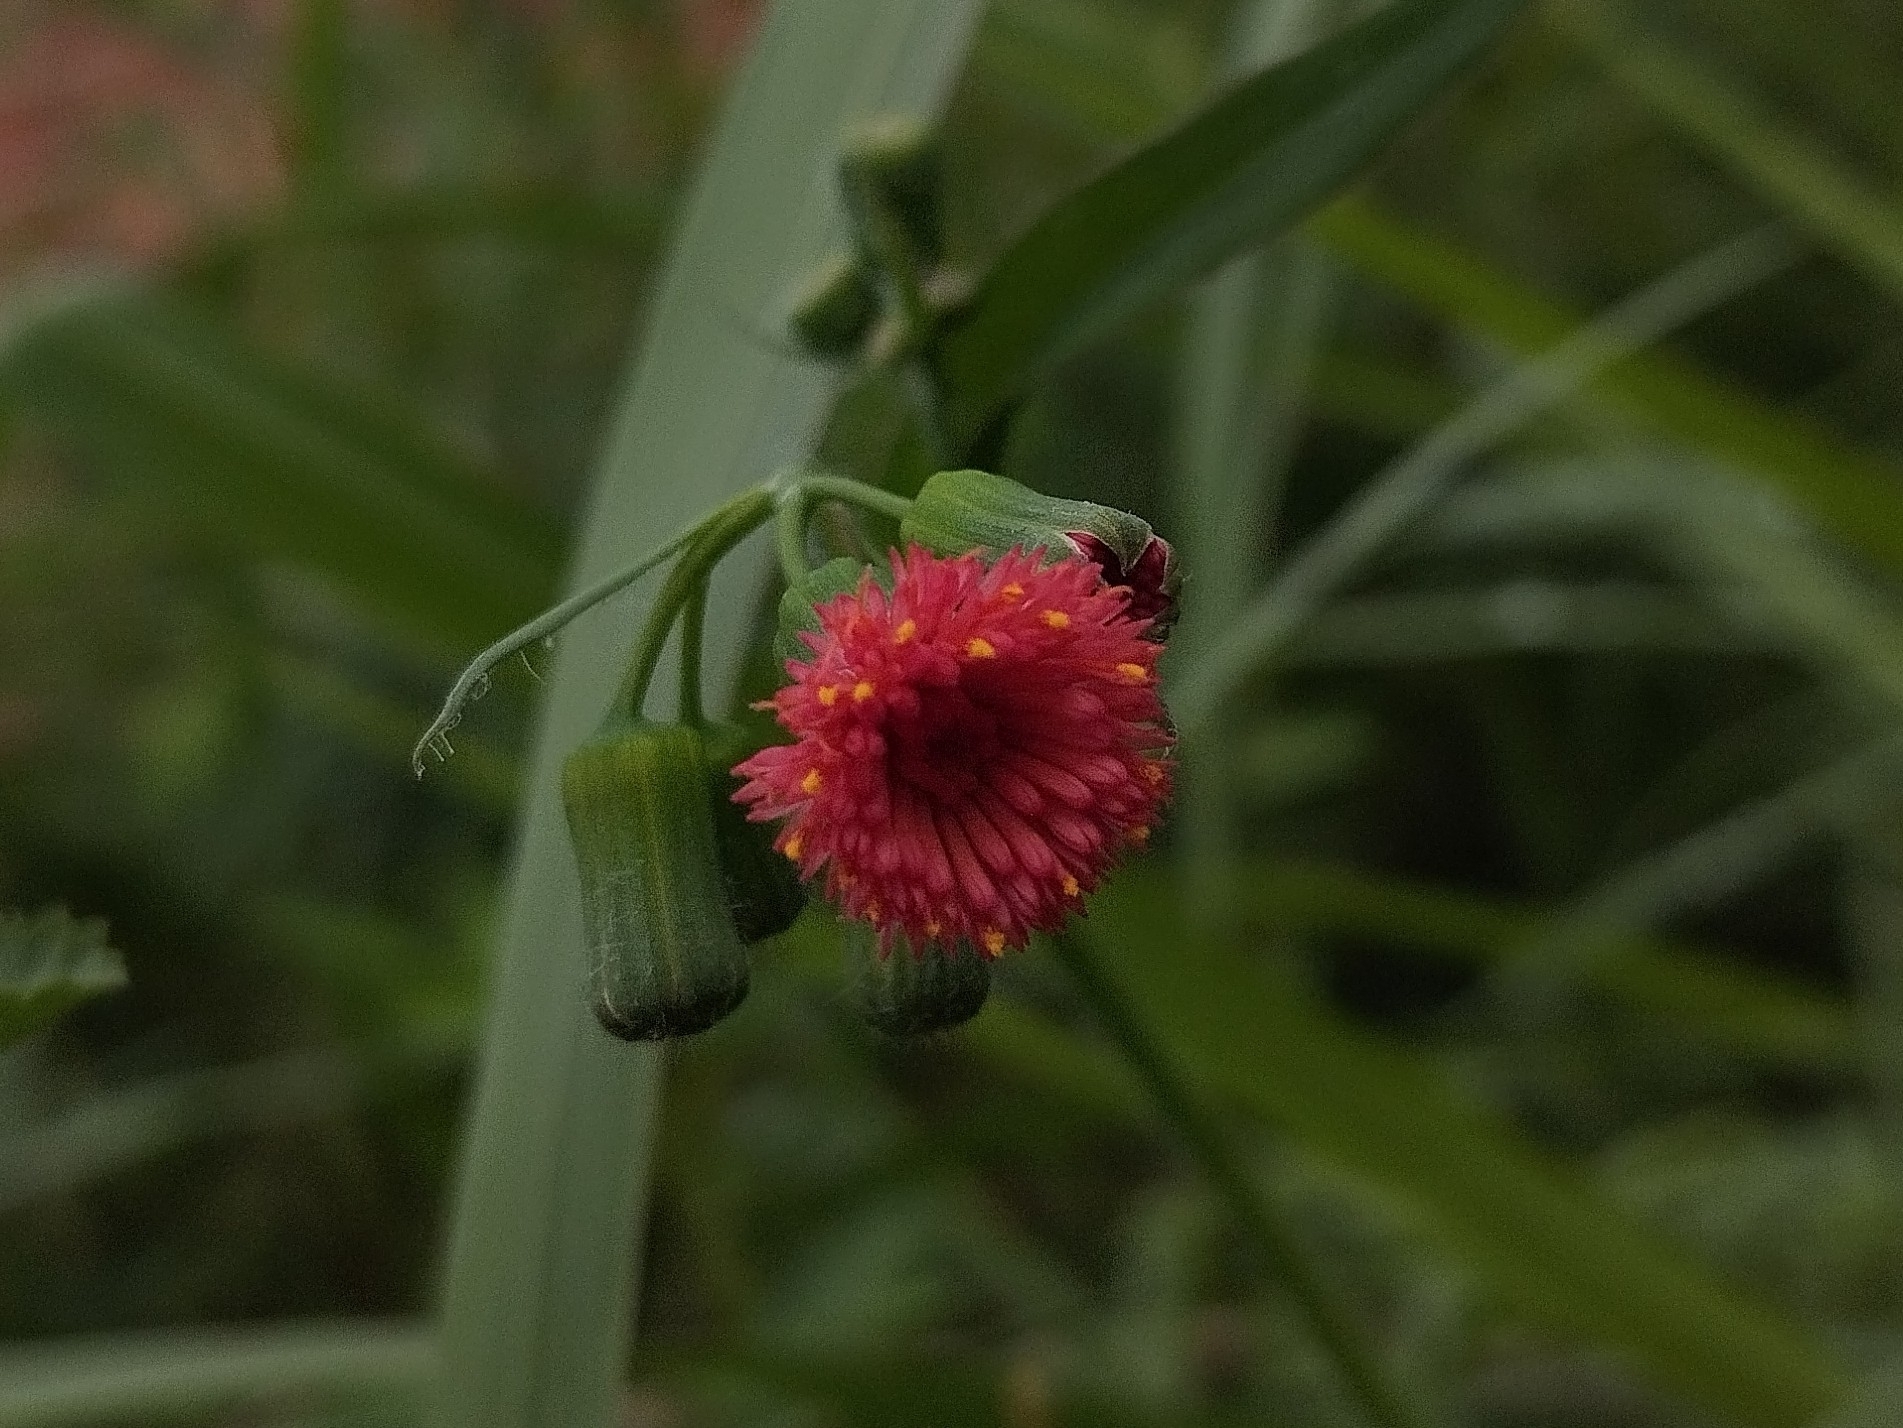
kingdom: Plantae
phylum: Tracheophyta
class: Magnoliopsida
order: Asterales
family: Asteraceae
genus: Emilia
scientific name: Emilia fosbergii
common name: Florida tasselflower
